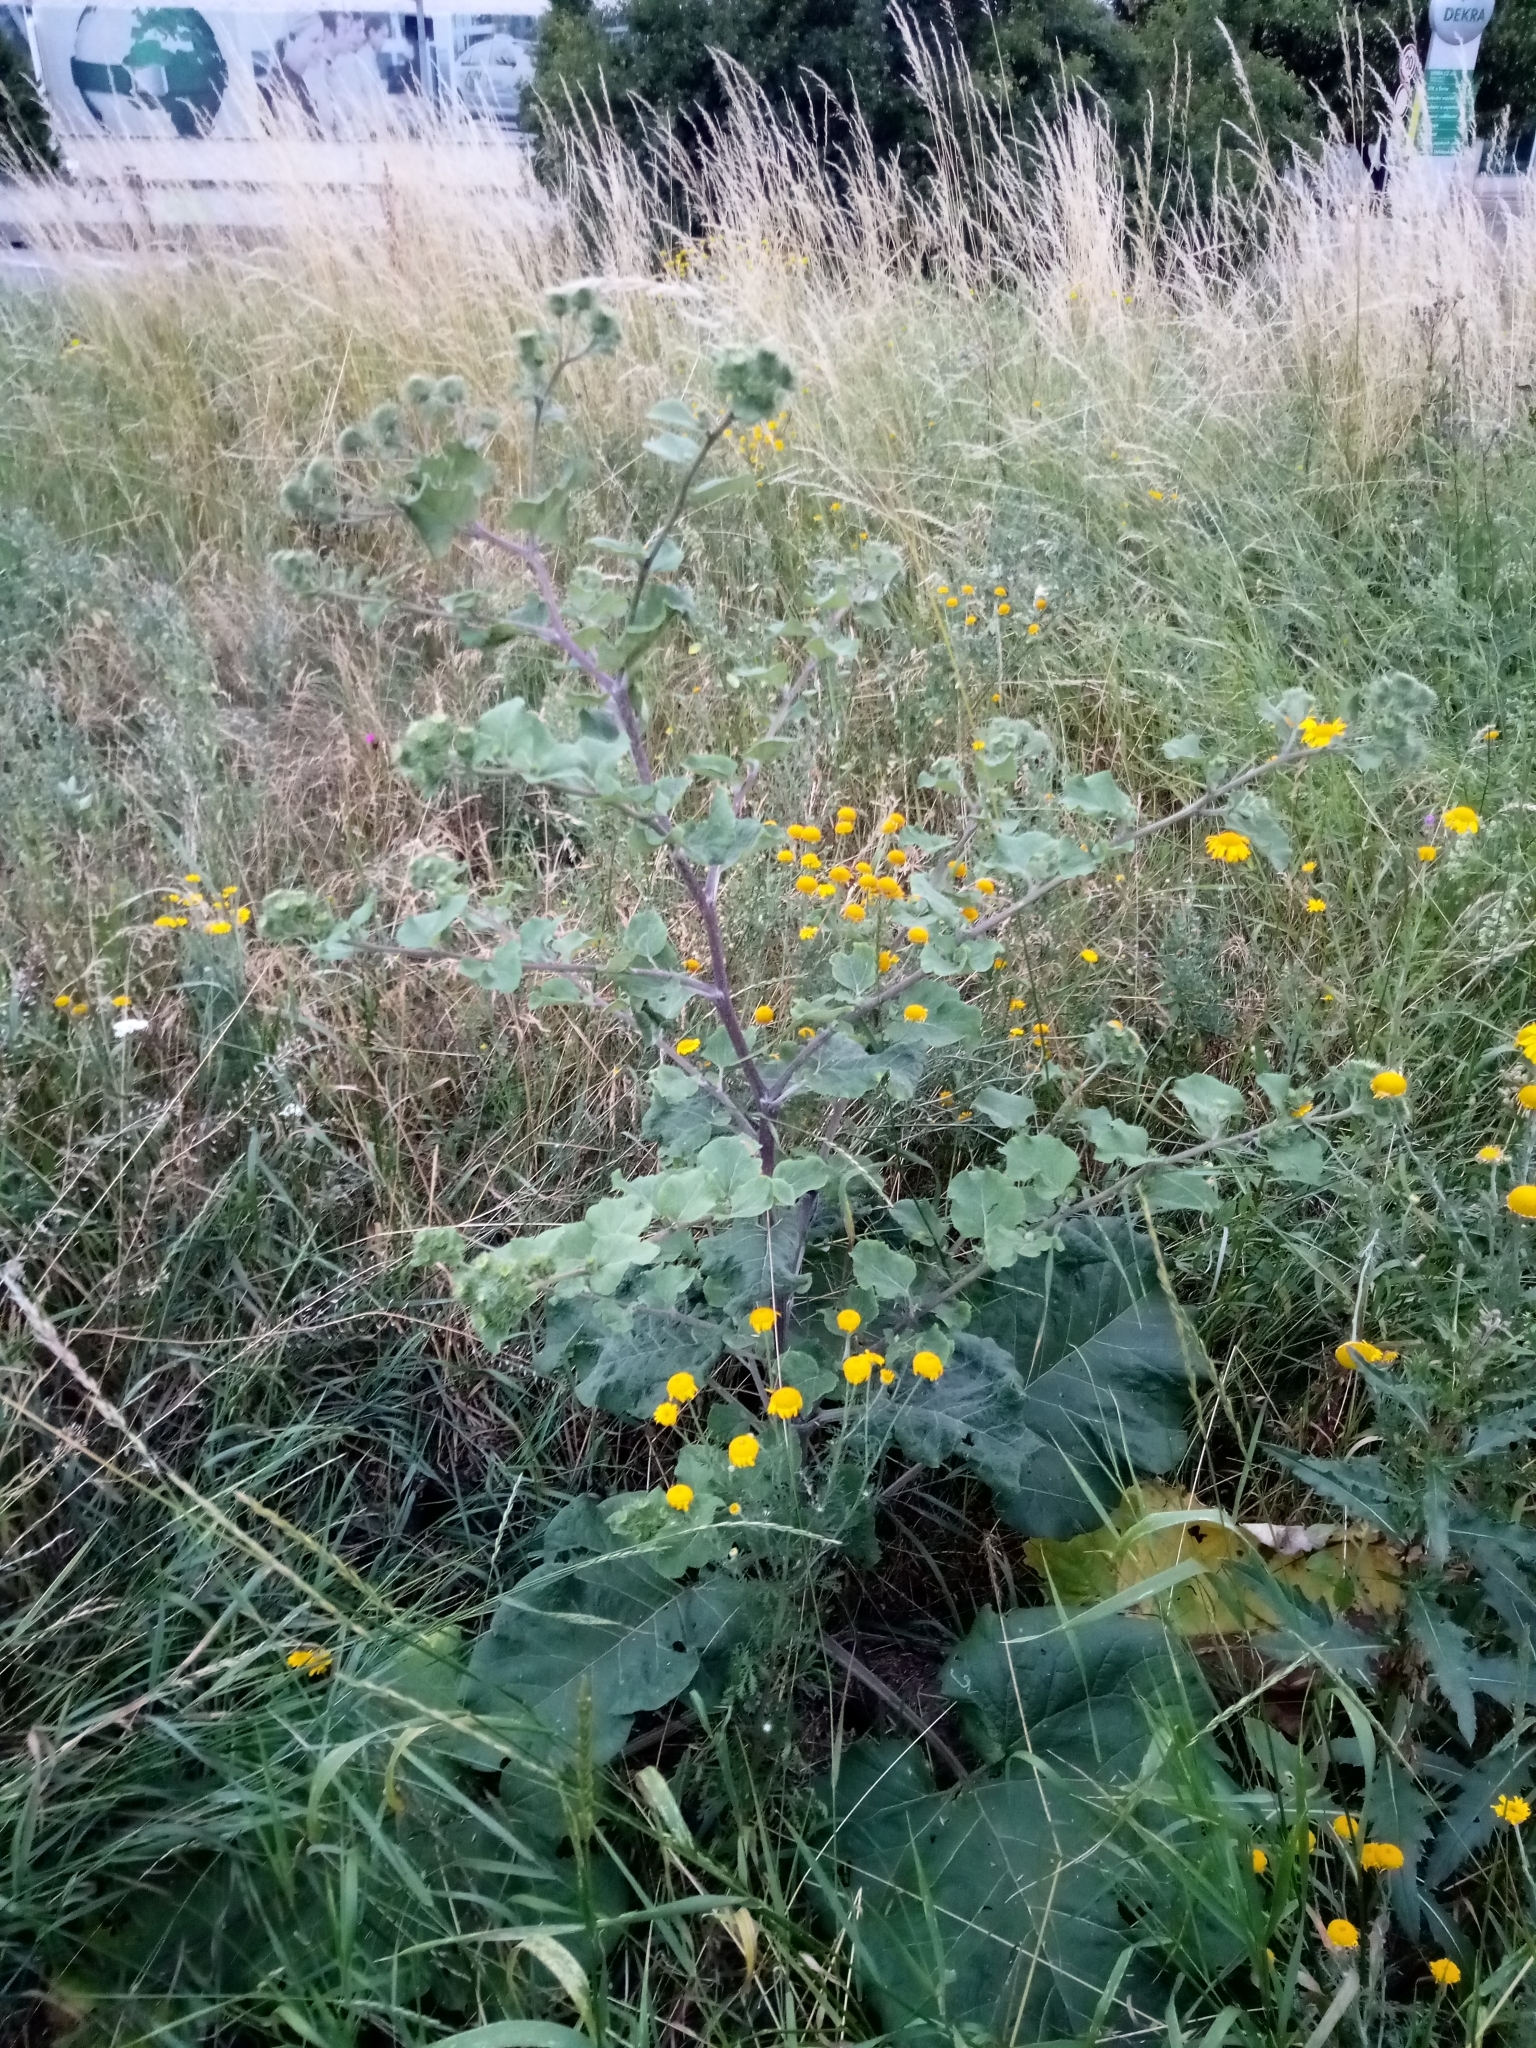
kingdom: Plantae
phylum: Tracheophyta
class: Magnoliopsida
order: Asterales
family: Asteraceae
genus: Arctium
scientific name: Arctium lappa
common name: Greater burdock
